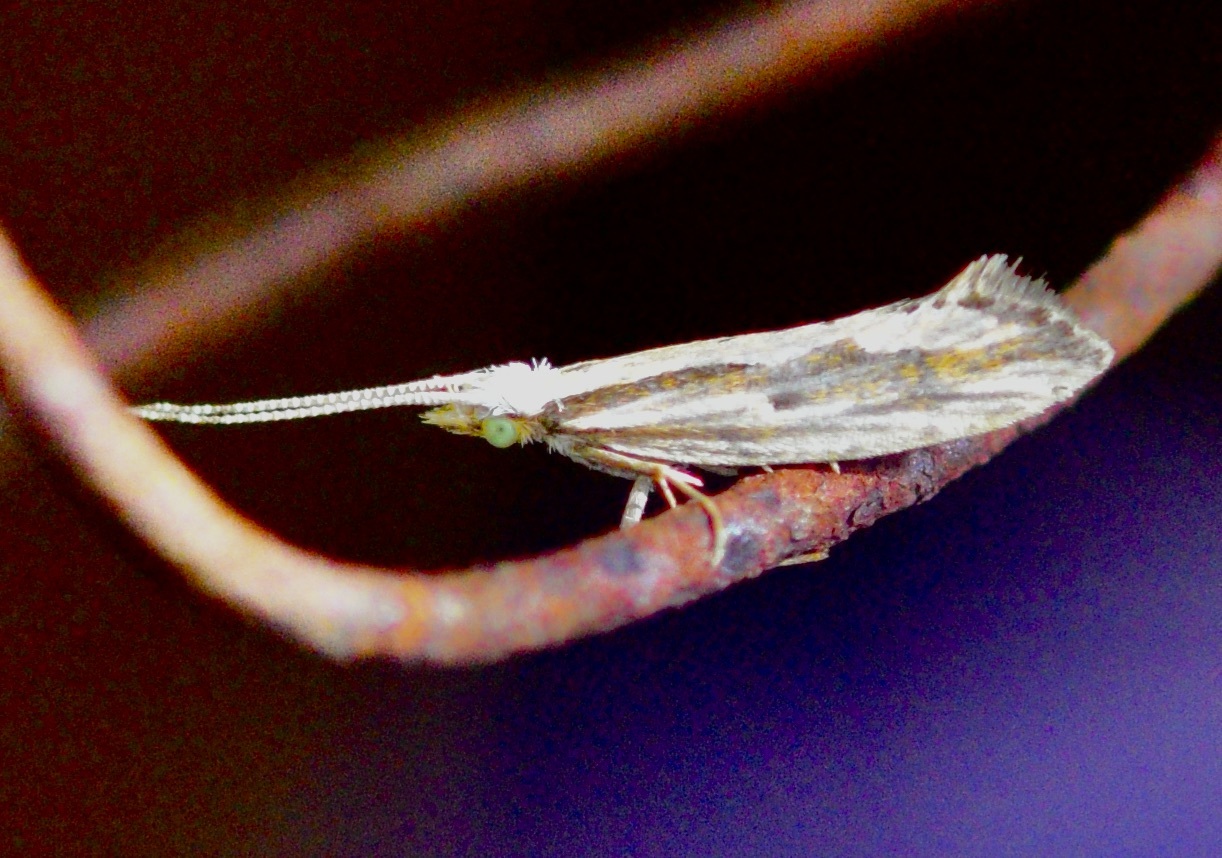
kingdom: Animalia
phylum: Arthropoda
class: Insecta
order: Lepidoptera
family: Plutellidae
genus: Plutella
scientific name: Plutella porrectella
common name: Dame's rocket moth
